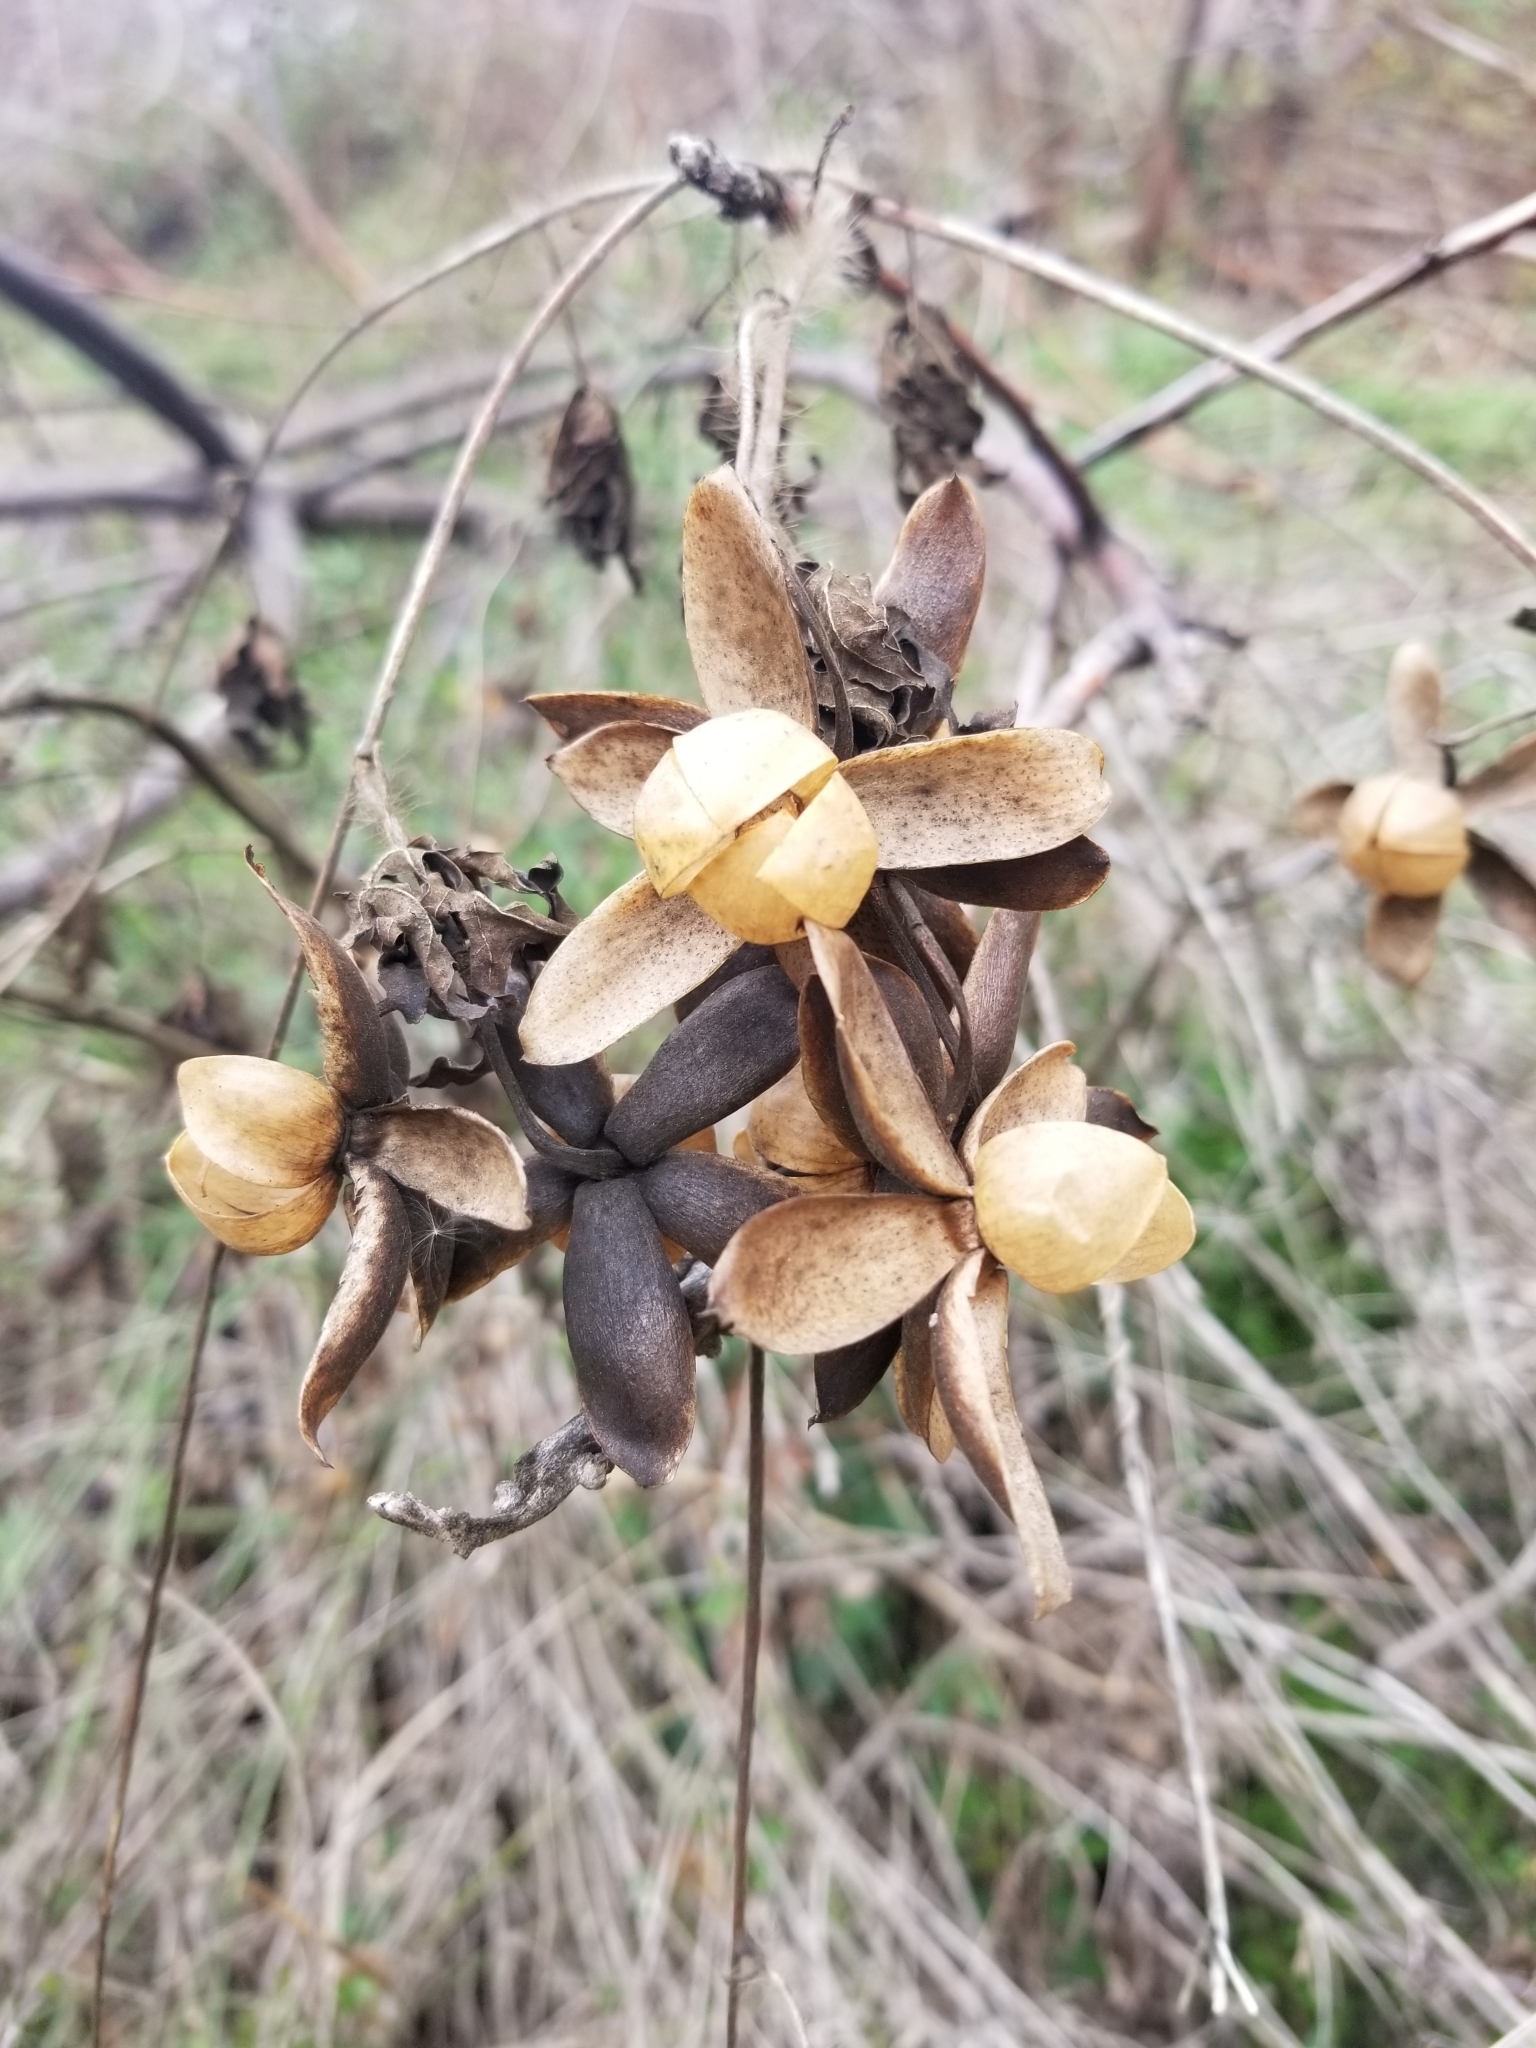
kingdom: Plantae
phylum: Tracheophyta
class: Magnoliopsida
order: Solanales
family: Convolvulaceae
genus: Distimake
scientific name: Distimake dissectus
